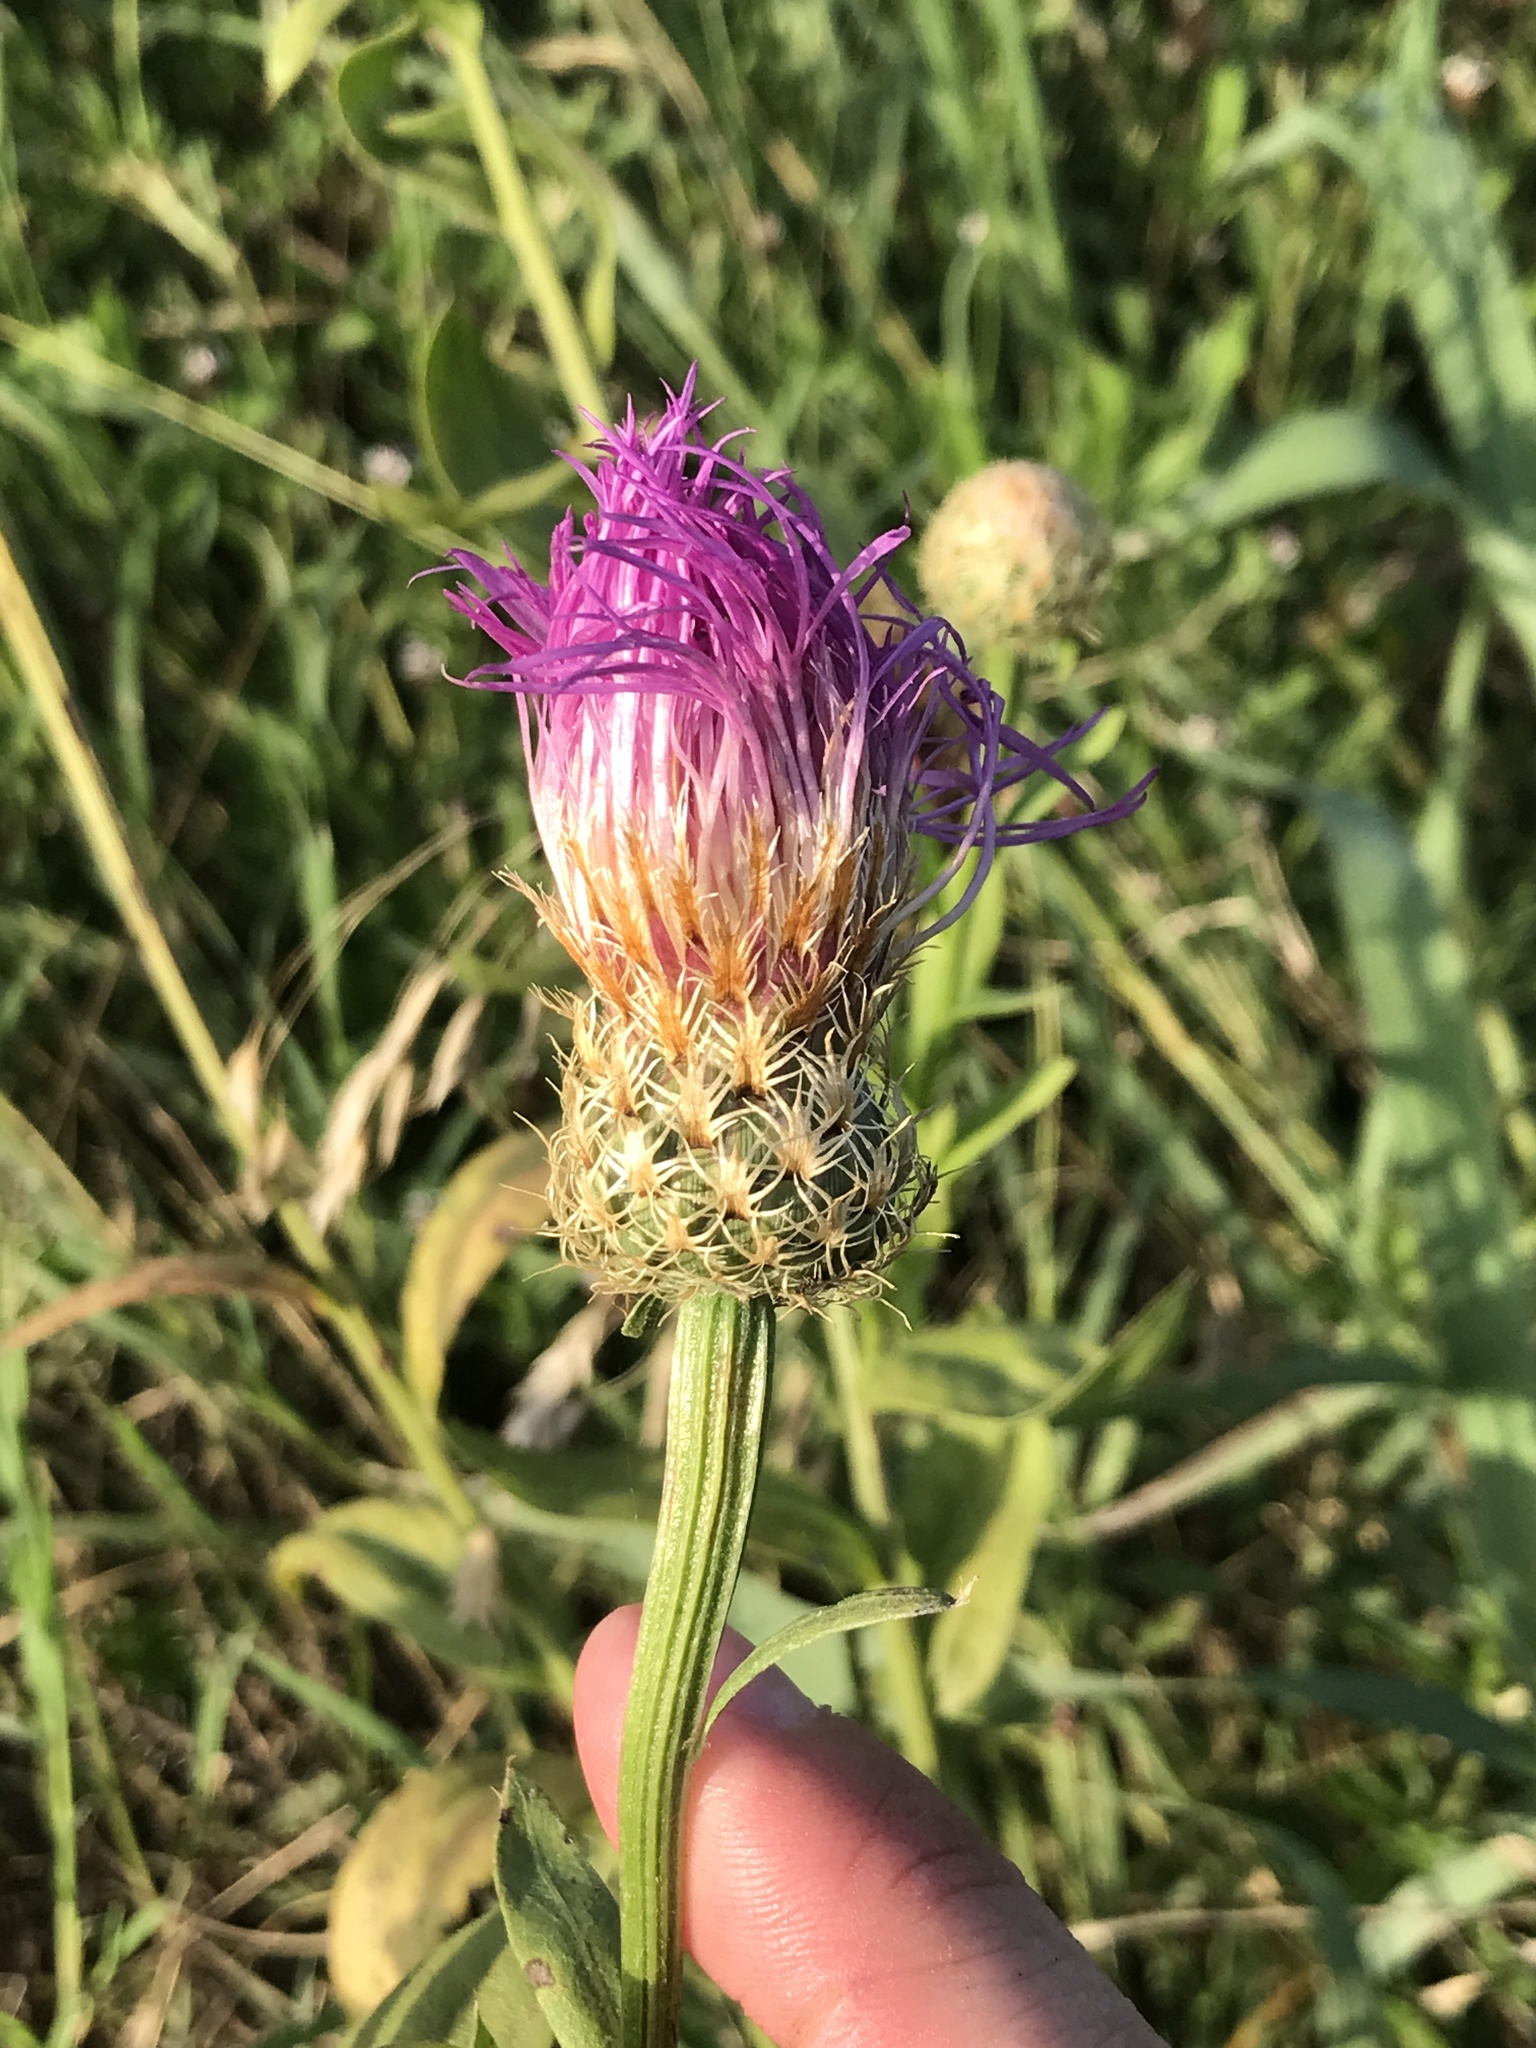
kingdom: Plantae
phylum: Tracheophyta
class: Magnoliopsida
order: Asterales
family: Asteraceae
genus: Plectocephalus
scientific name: Plectocephalus americanus
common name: American basket-flower
